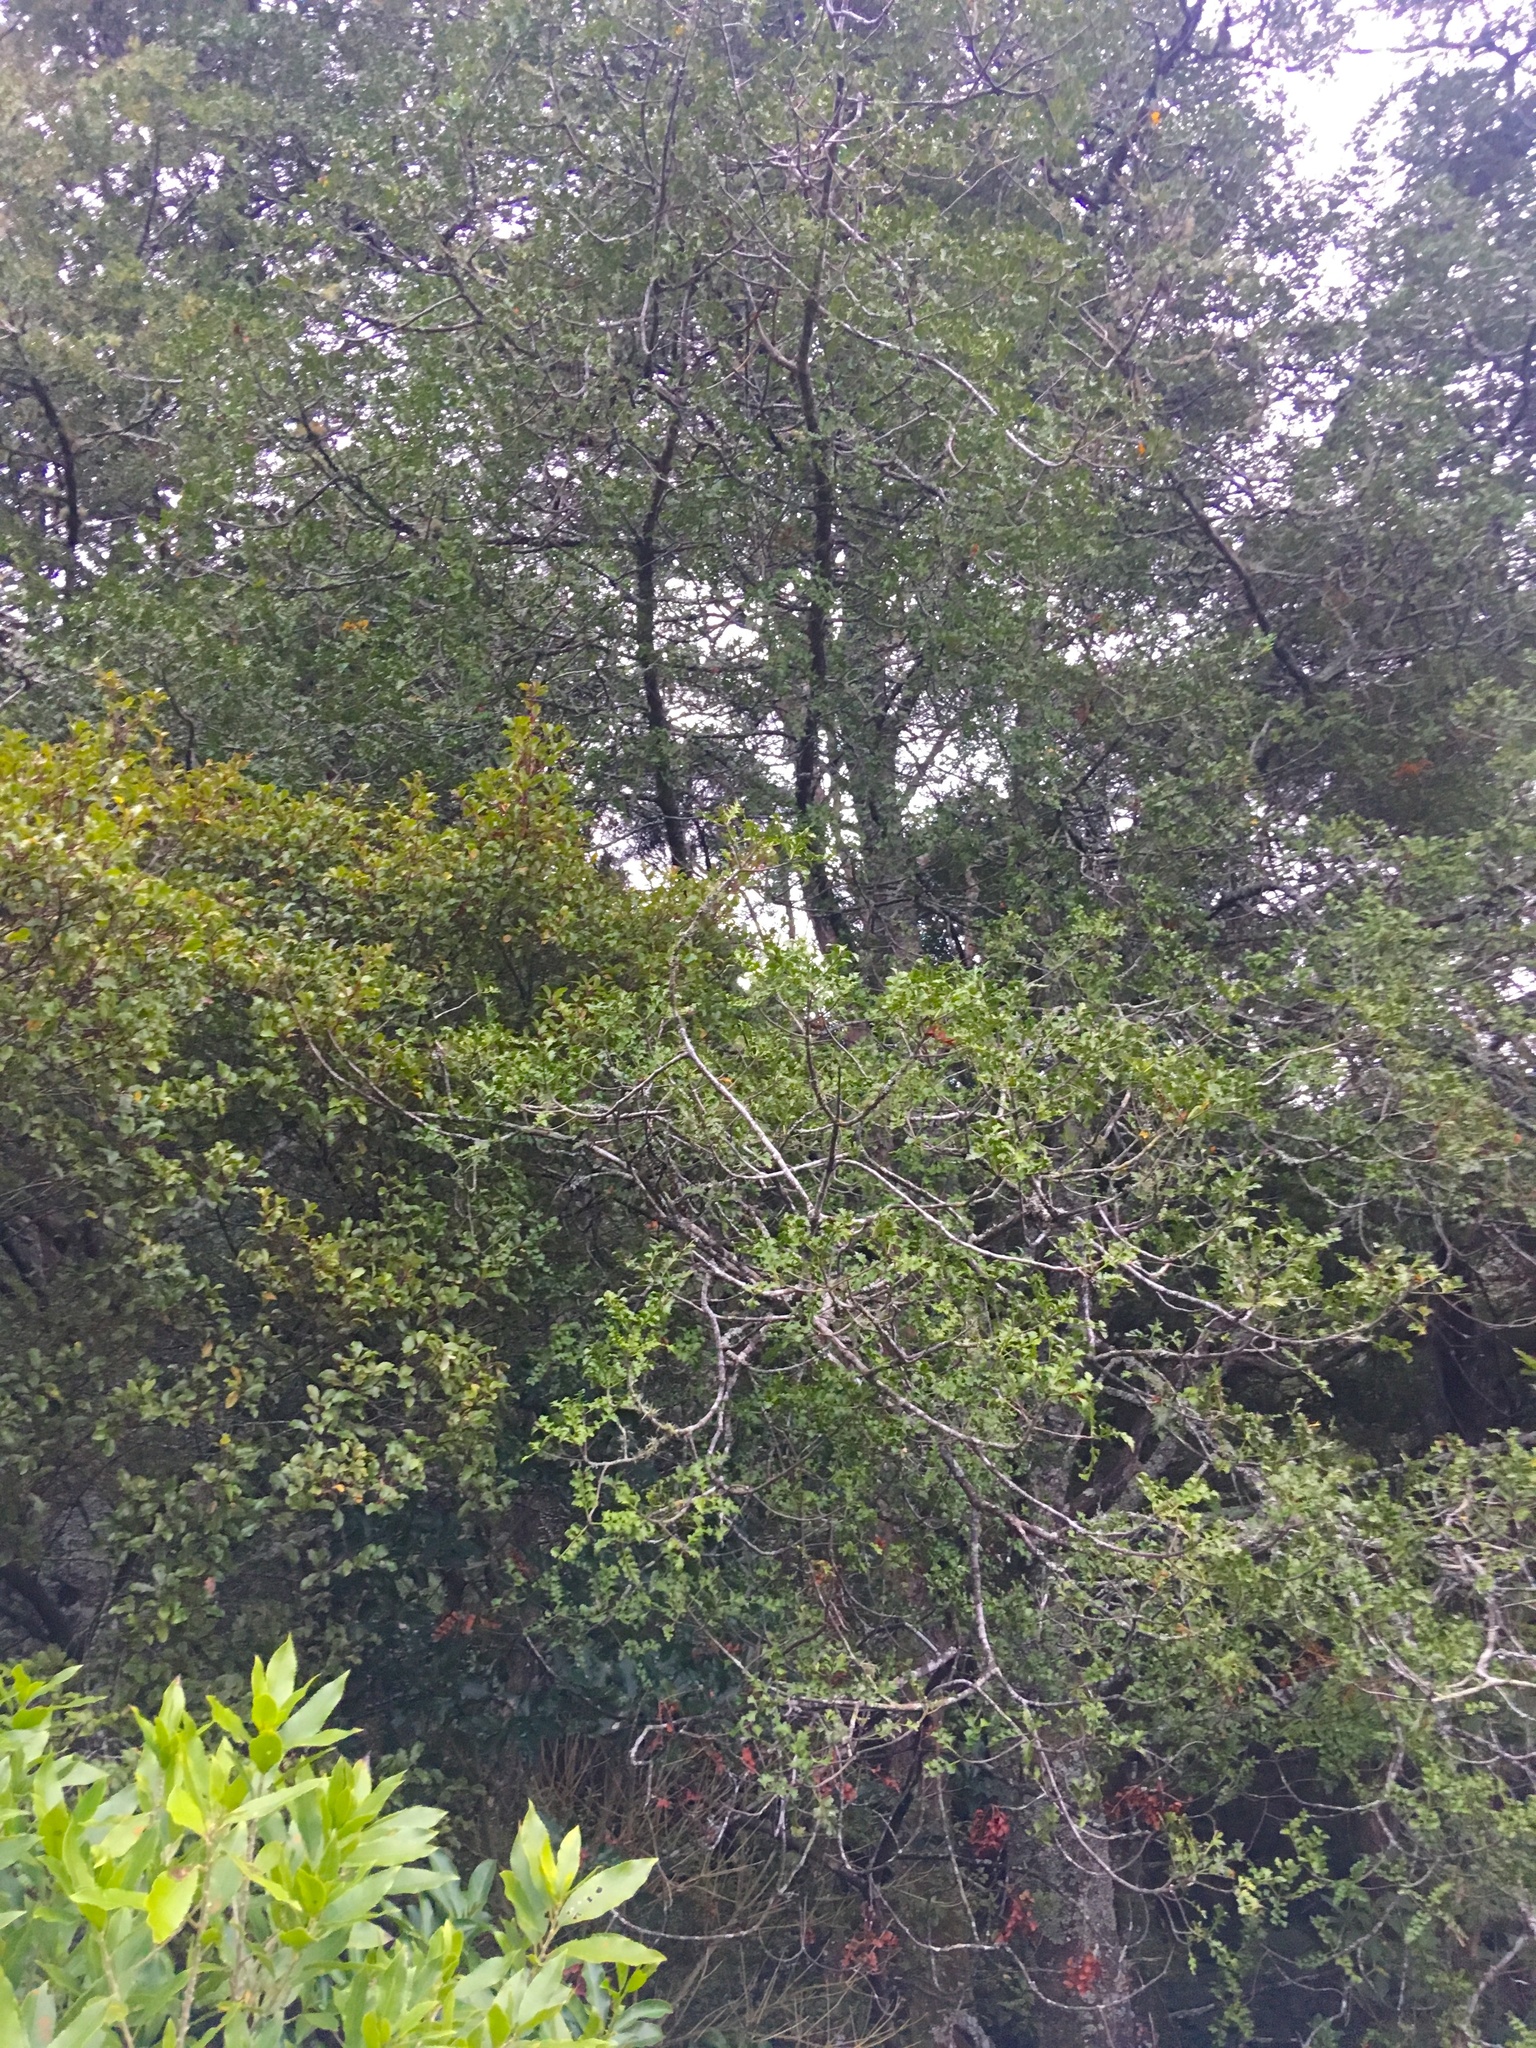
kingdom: Plantae
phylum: Tracheophyta
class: Pinopsida
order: Pinales
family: Phyllocladaceae
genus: Phyllocladus
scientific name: Phyllocladus trichomanoides
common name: Celery pine
